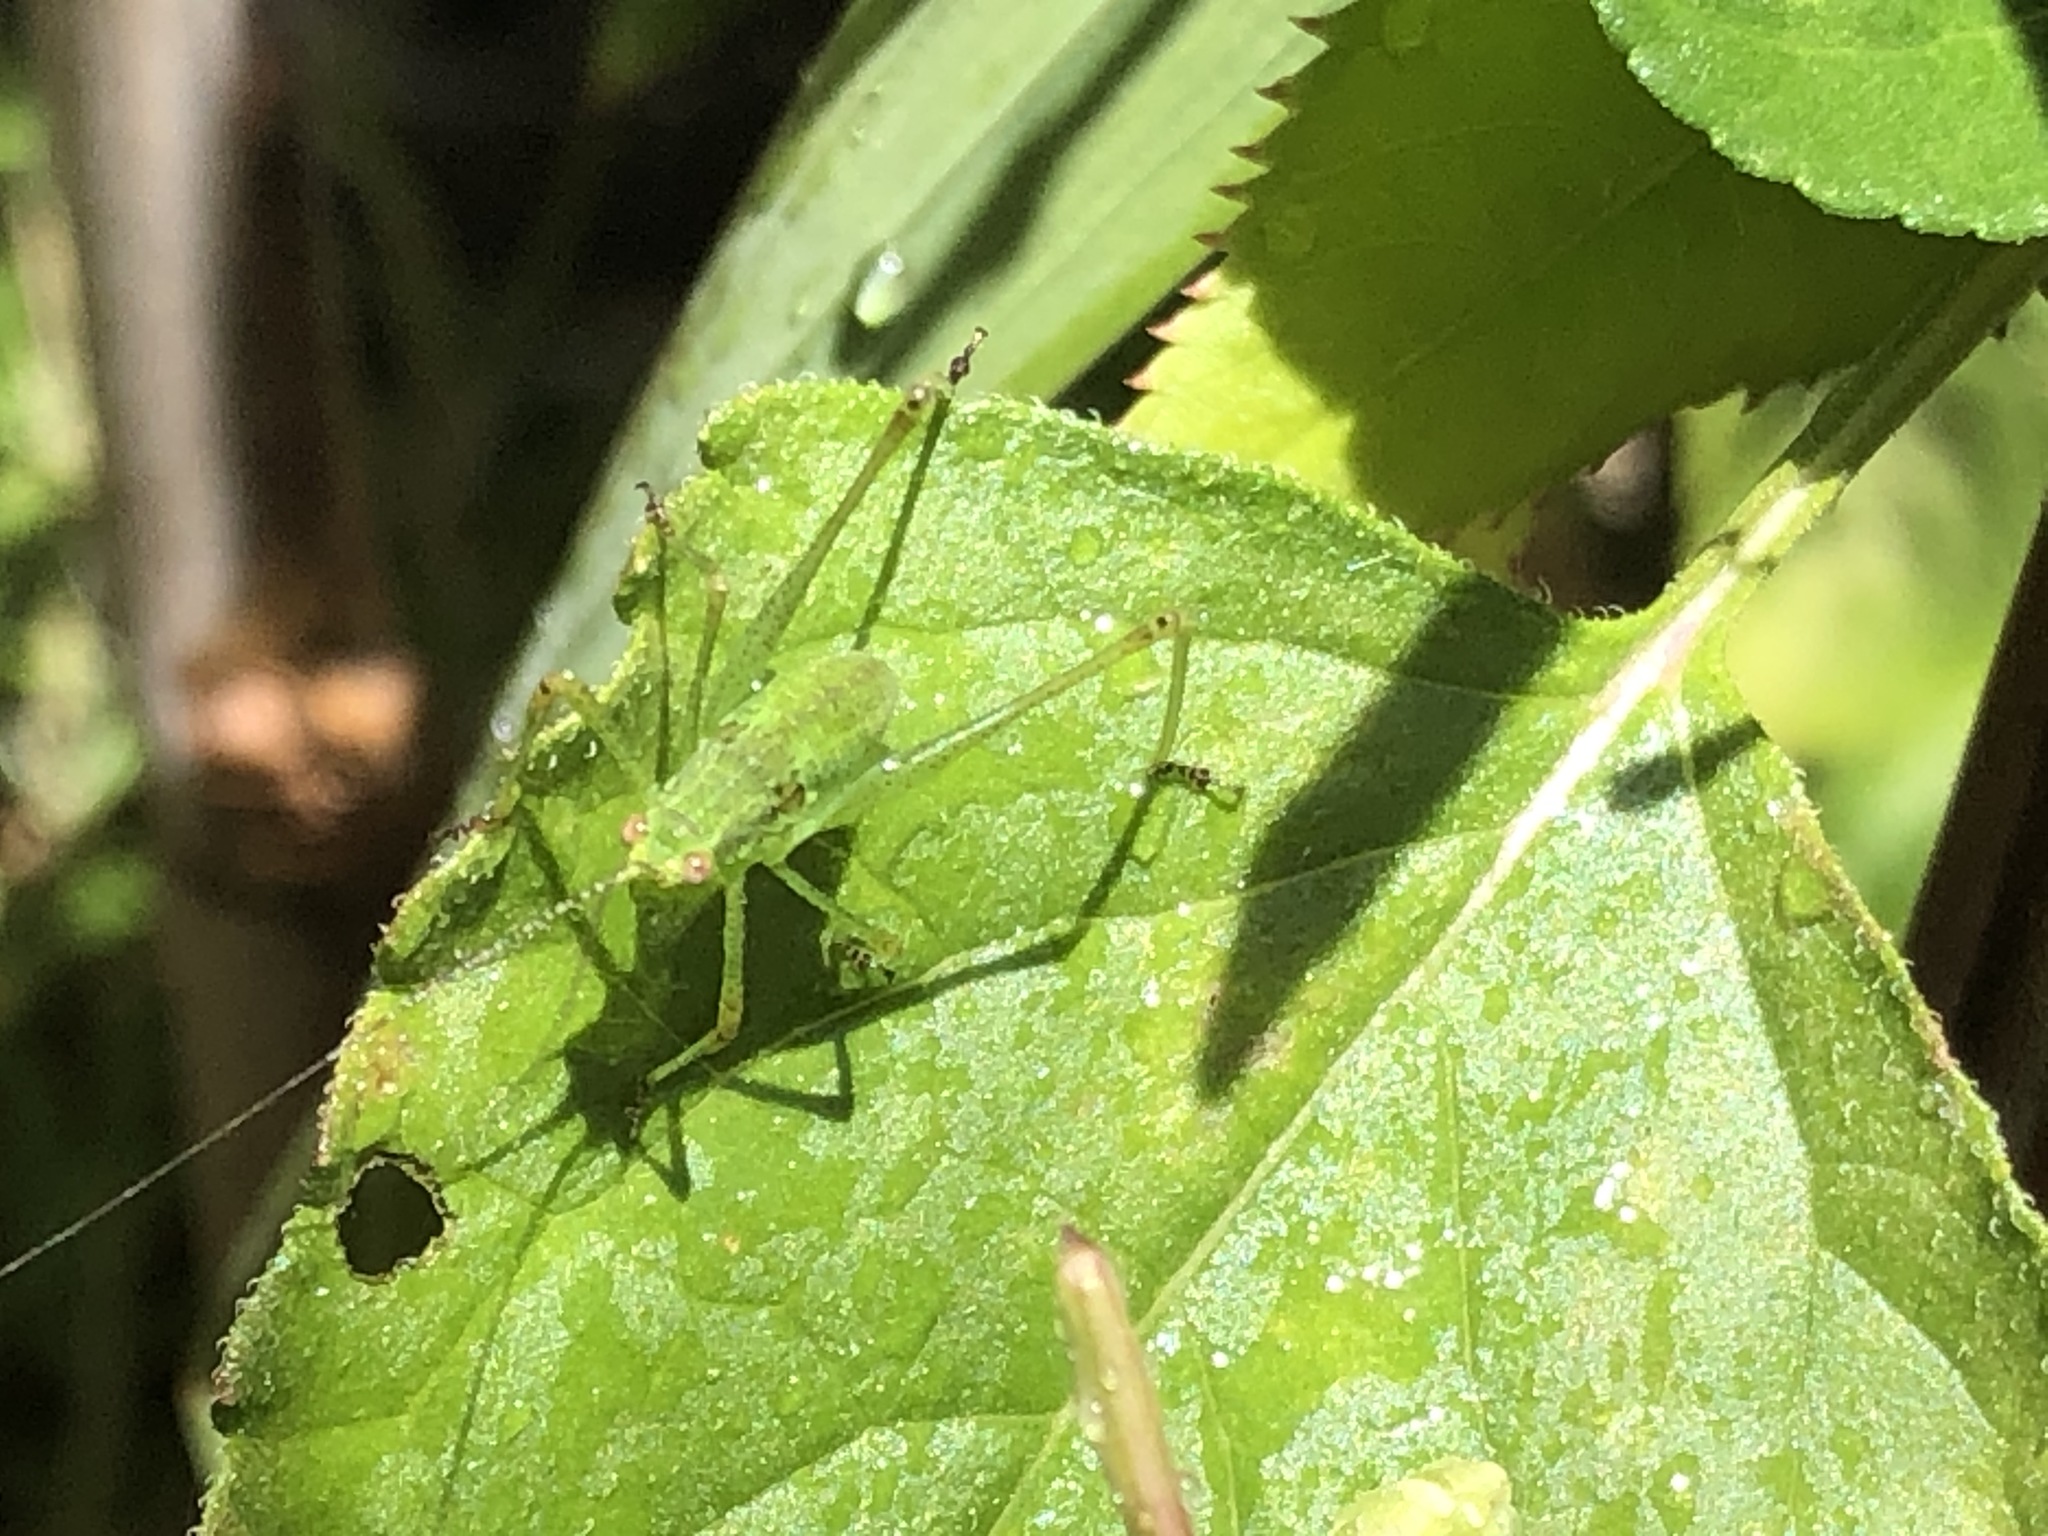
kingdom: Animalia
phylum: Arthropoda
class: Insecta
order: Orthoptera
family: Tettigoniidae
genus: Phaneroptera
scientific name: Phaneroptera nana
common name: Southern sickle bush-cricket
